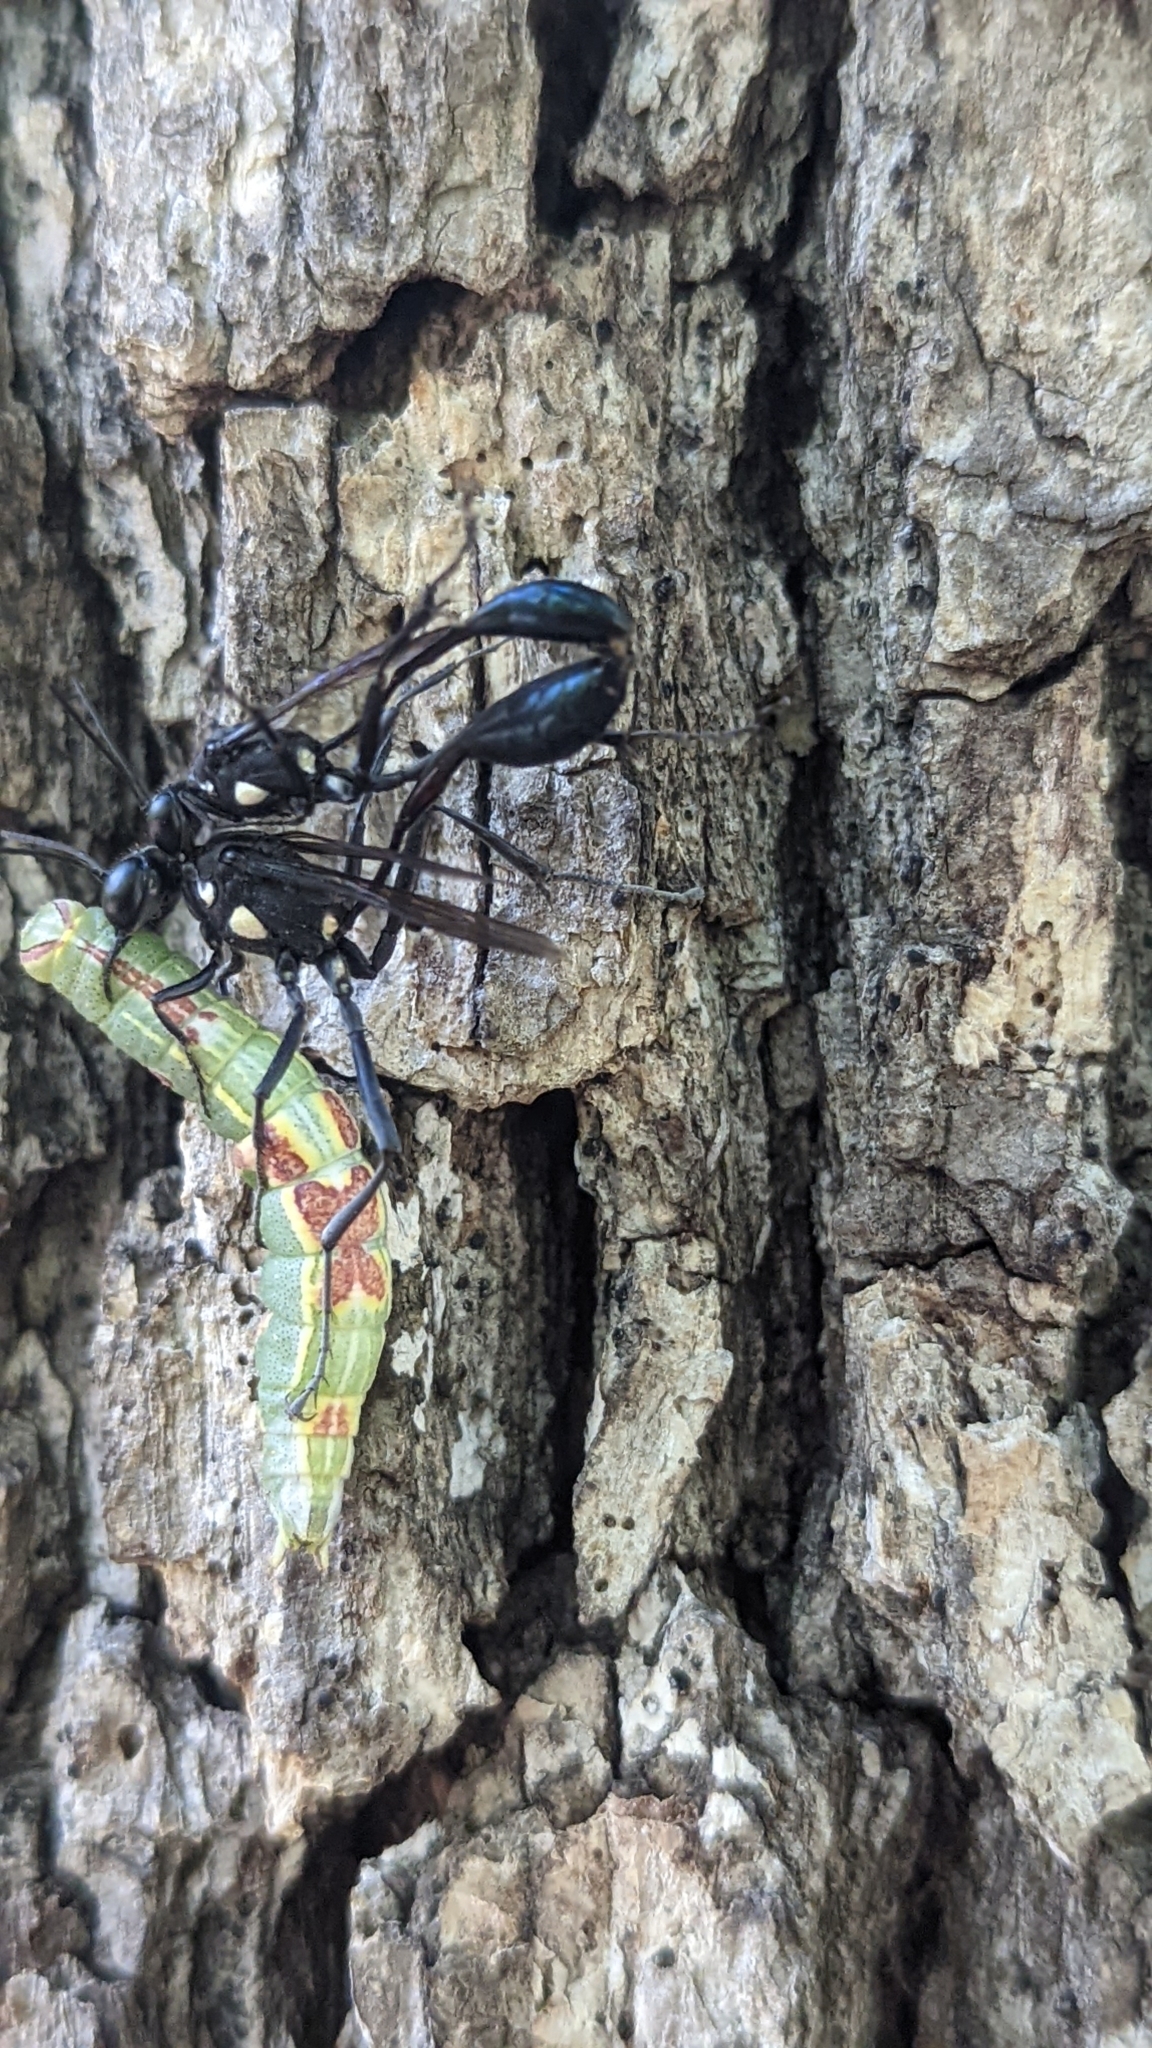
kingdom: Animalia
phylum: Arthropoda
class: Insecta
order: Lepidoptera
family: Notodontidae
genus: Disphragis
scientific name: Disphragis Cecrita guttivitta
